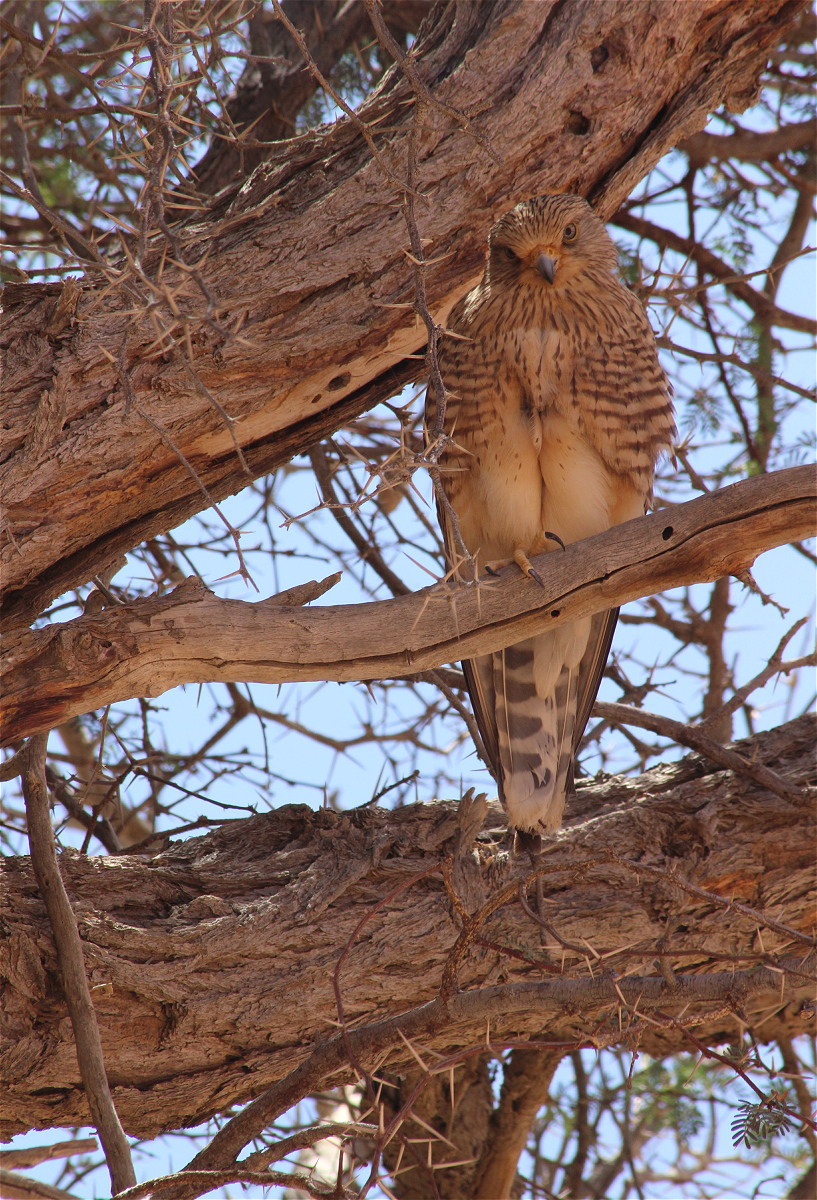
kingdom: Animalia
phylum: Chordata
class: Aves
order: Falconiformes
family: Falconidae
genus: Falco
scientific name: Falco rupicoloides
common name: Greater kestrel
